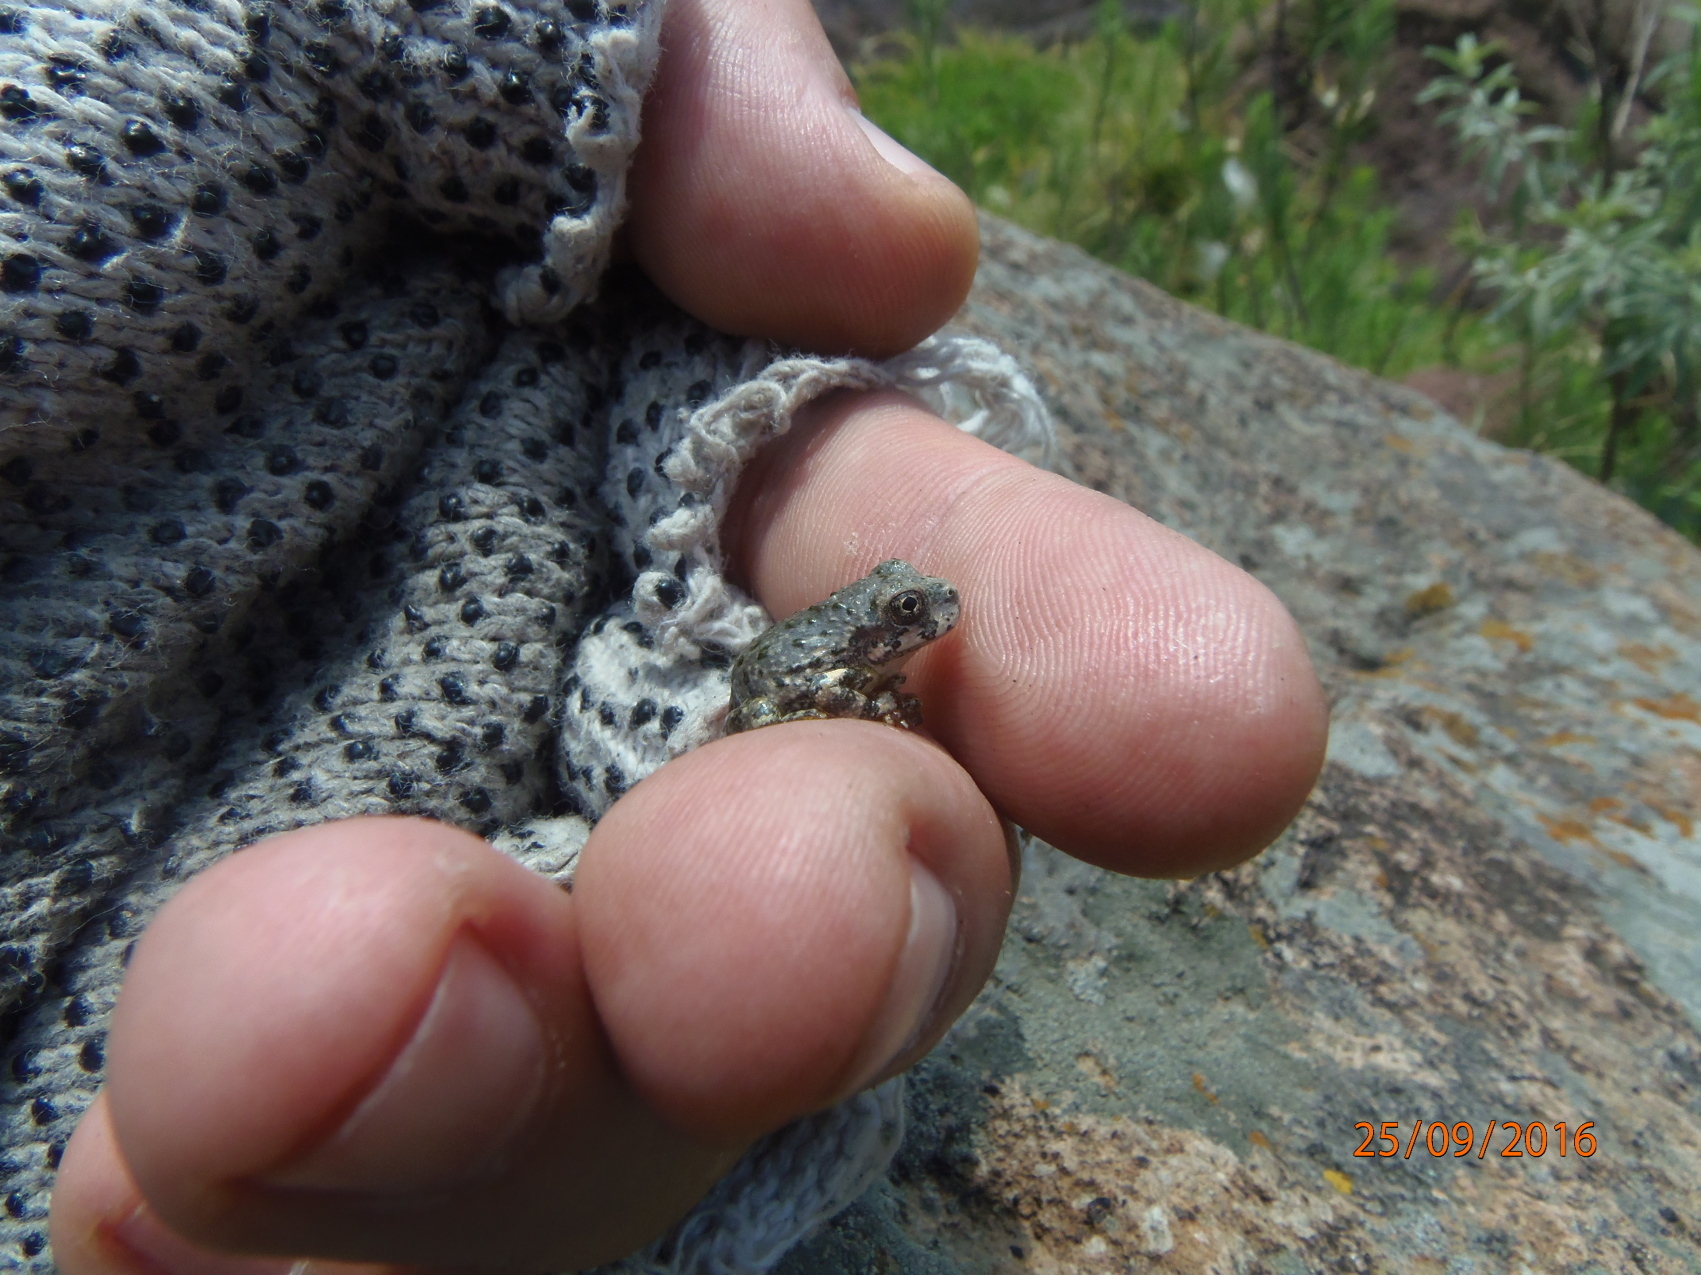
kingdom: Animalia
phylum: Chordata
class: Amphibia
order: Anura
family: Hylidae
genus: Dryophytes
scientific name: Dryophytes arenicolor
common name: Canyon treefrog
